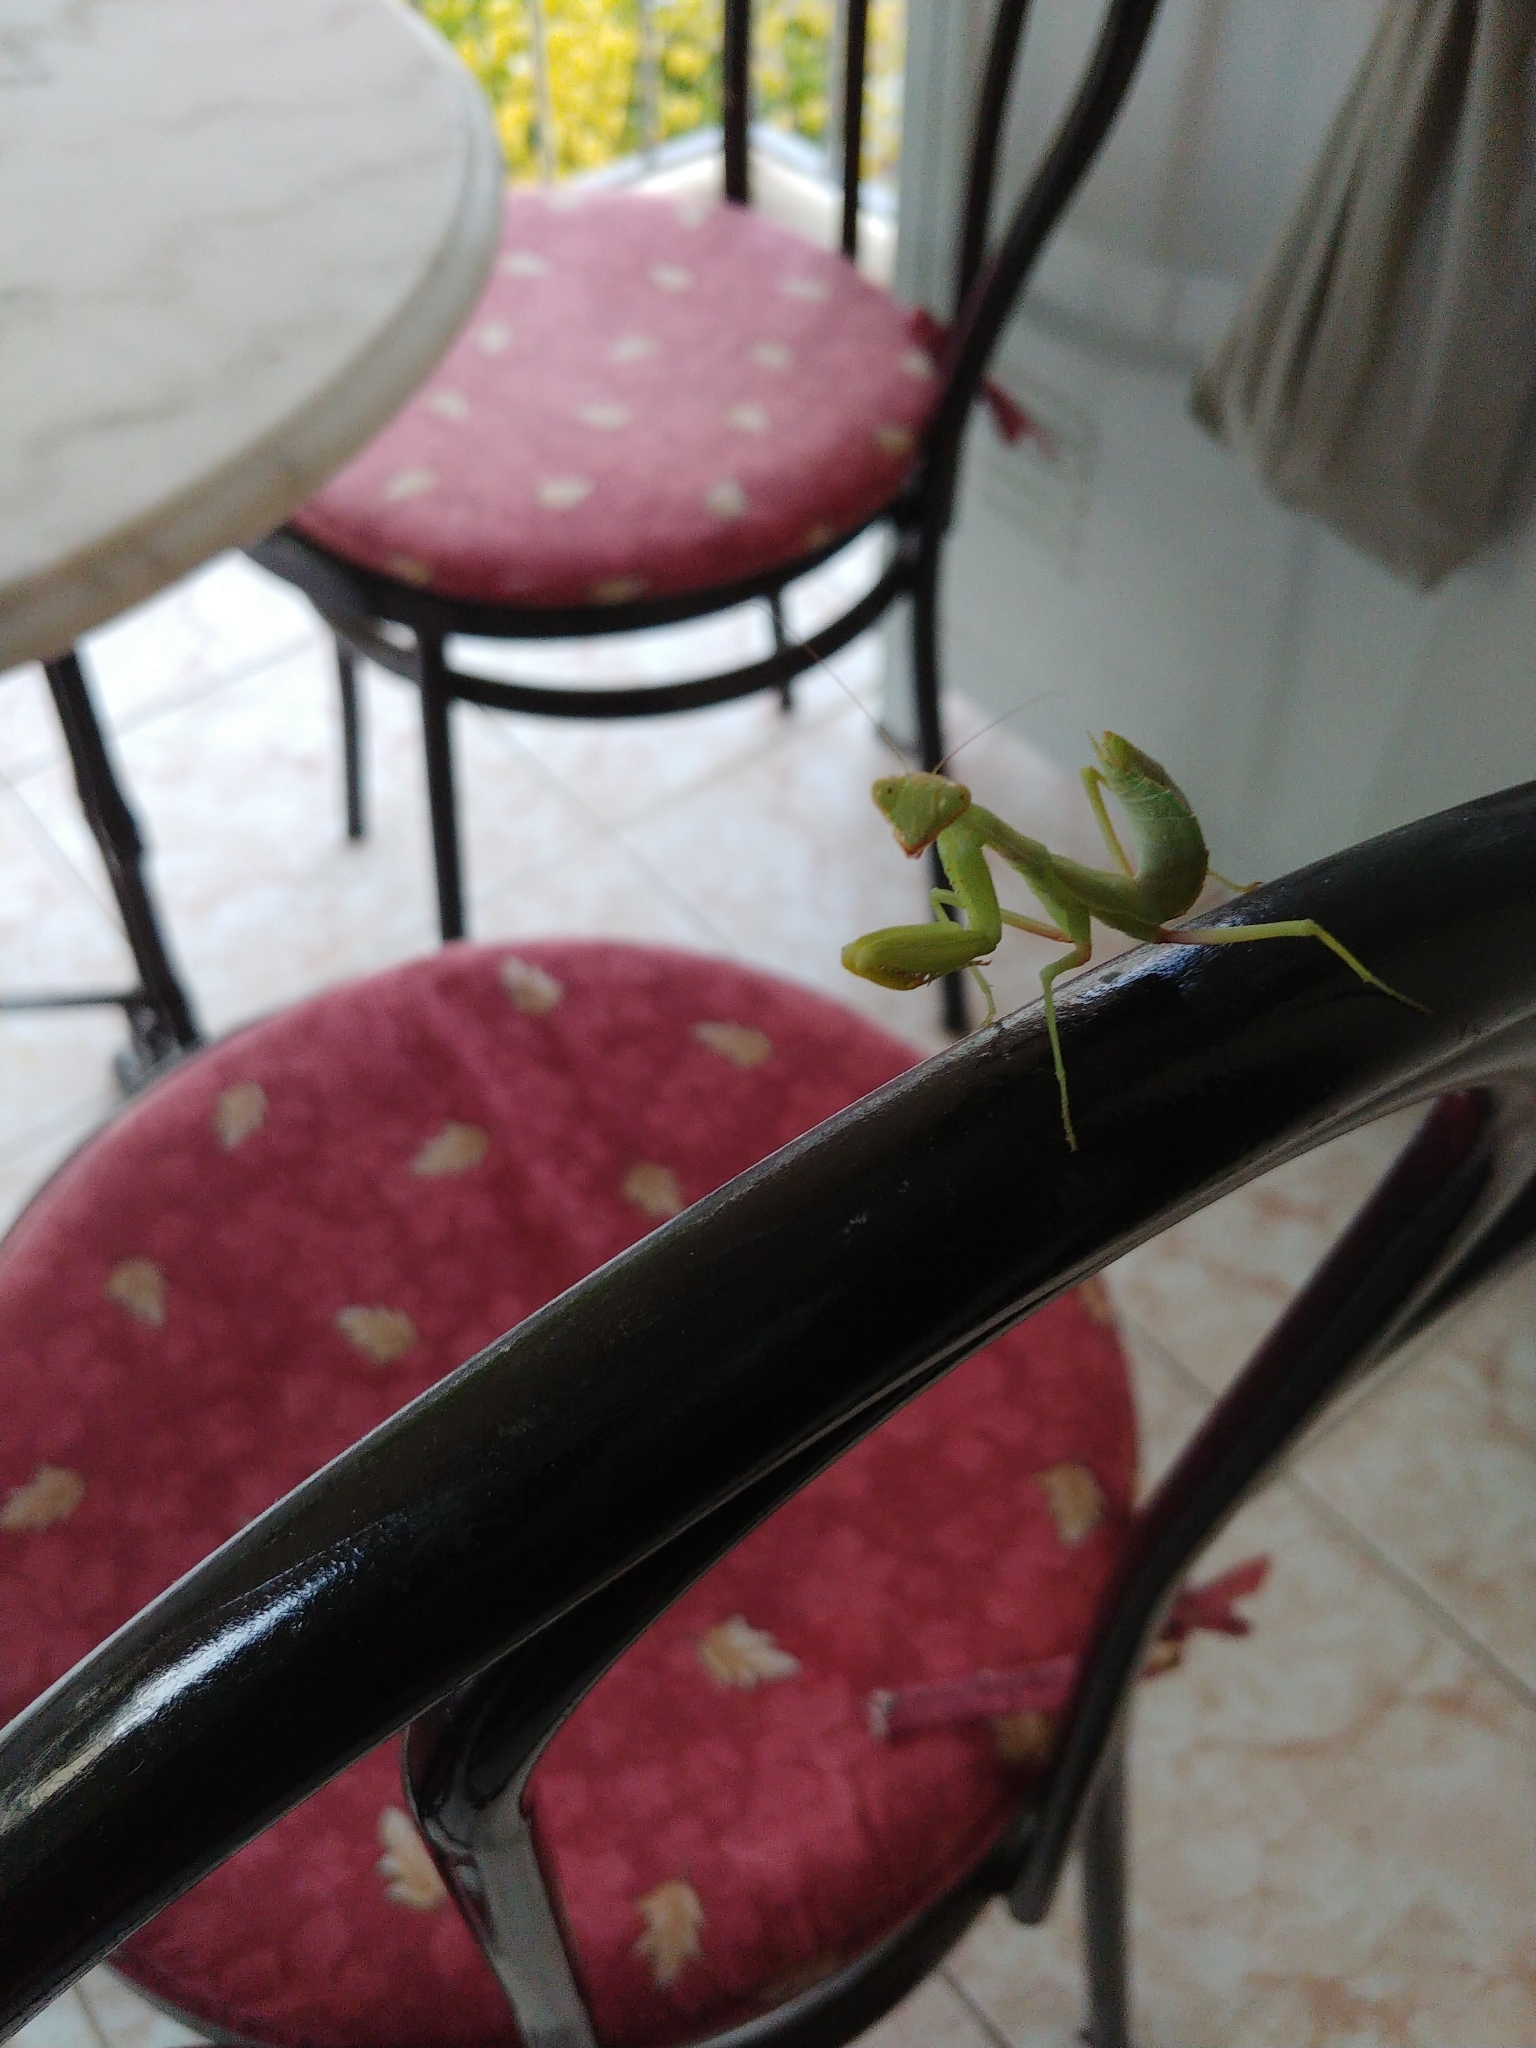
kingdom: Animalia
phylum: Arthropoda
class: Insecta
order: Mantodea
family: Mantidae
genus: Hierodula
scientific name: Hierodula transcaucasica
